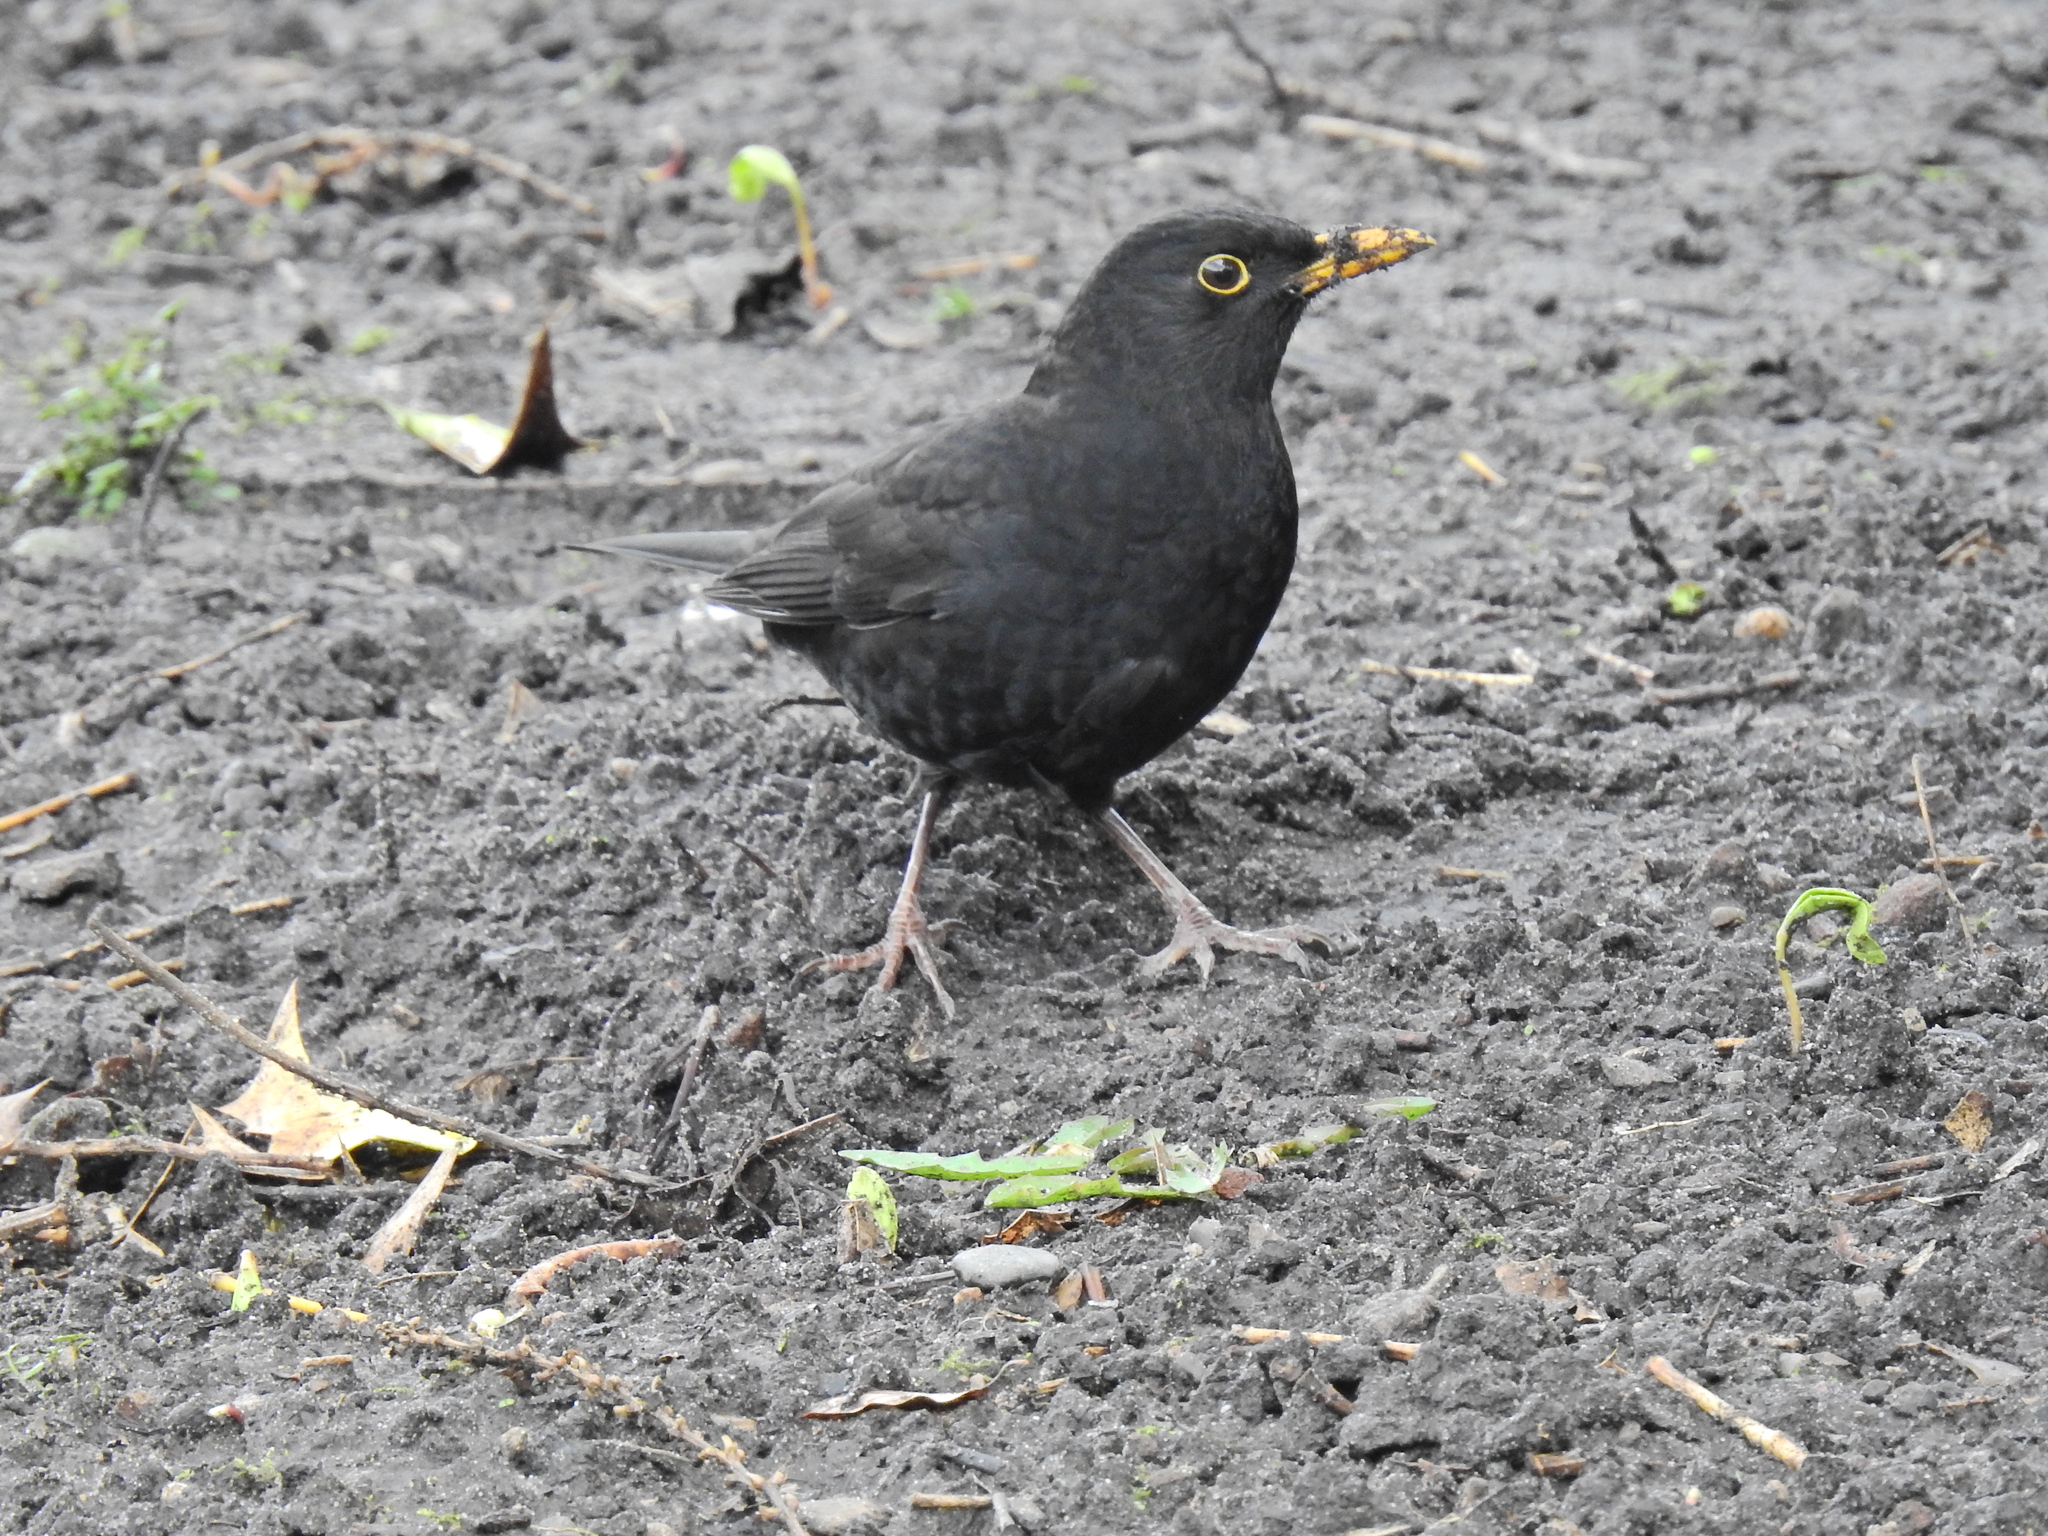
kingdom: Animalia
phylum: Chordata
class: Aves
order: Passeriformes
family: Turdidae
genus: Turdus
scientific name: Turdus merula
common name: Common blackbird
